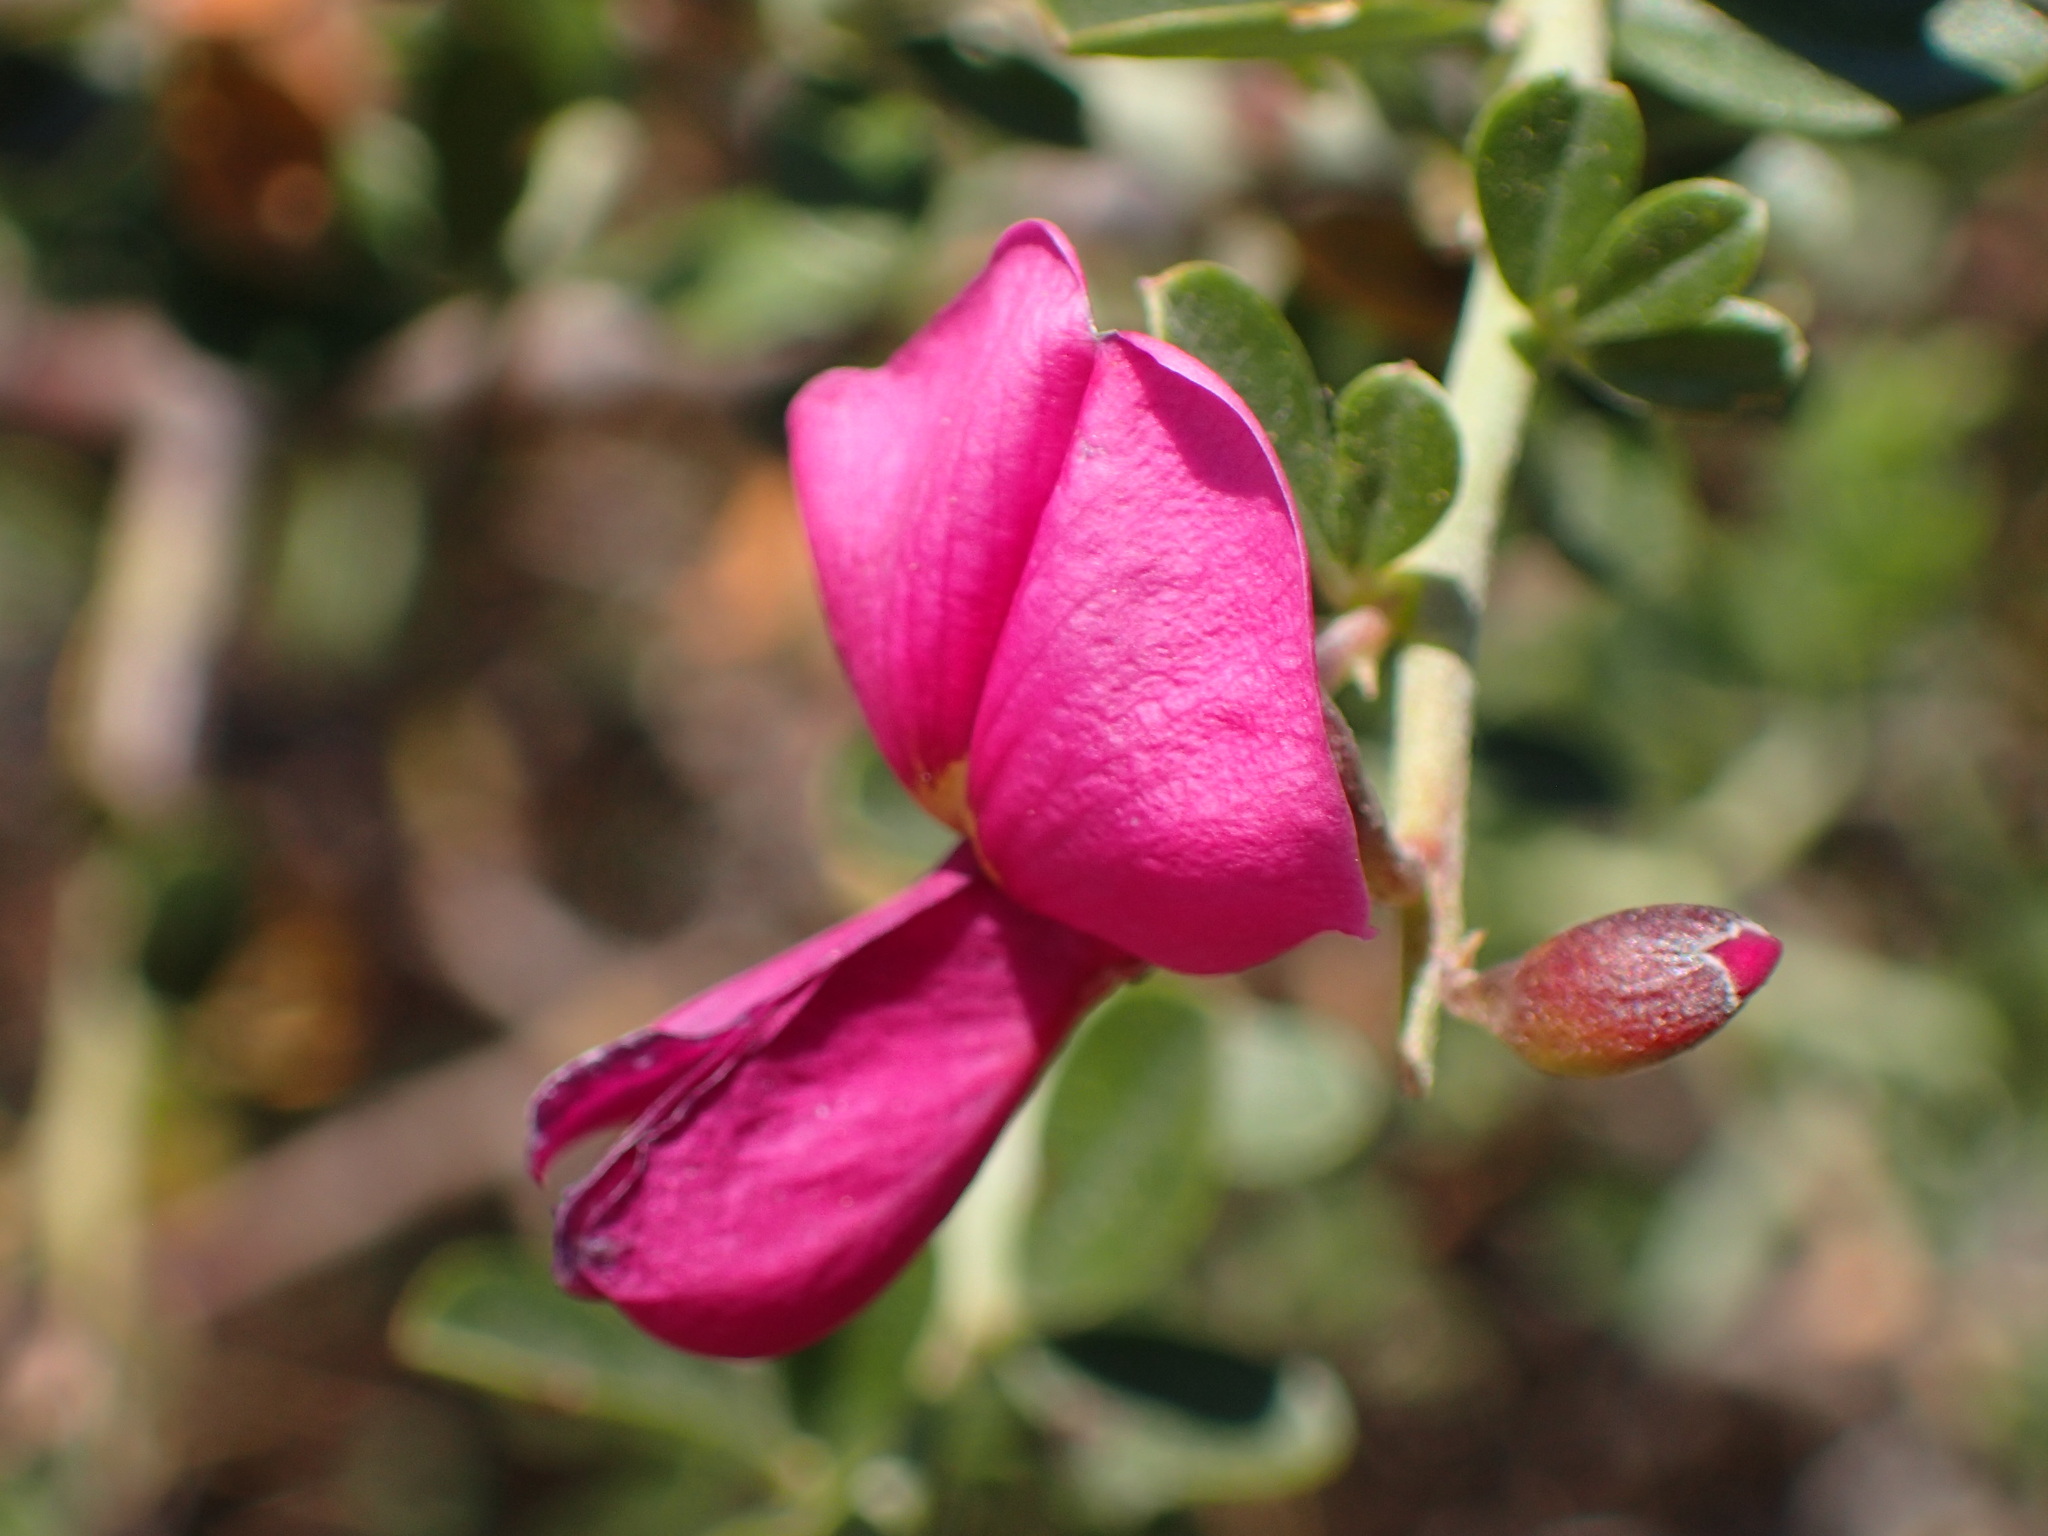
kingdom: Plantae
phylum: Tracheophyta
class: Magnoliopsida
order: Fabales
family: Fabaceae
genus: Pickeringia
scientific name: Pickeringia montana
